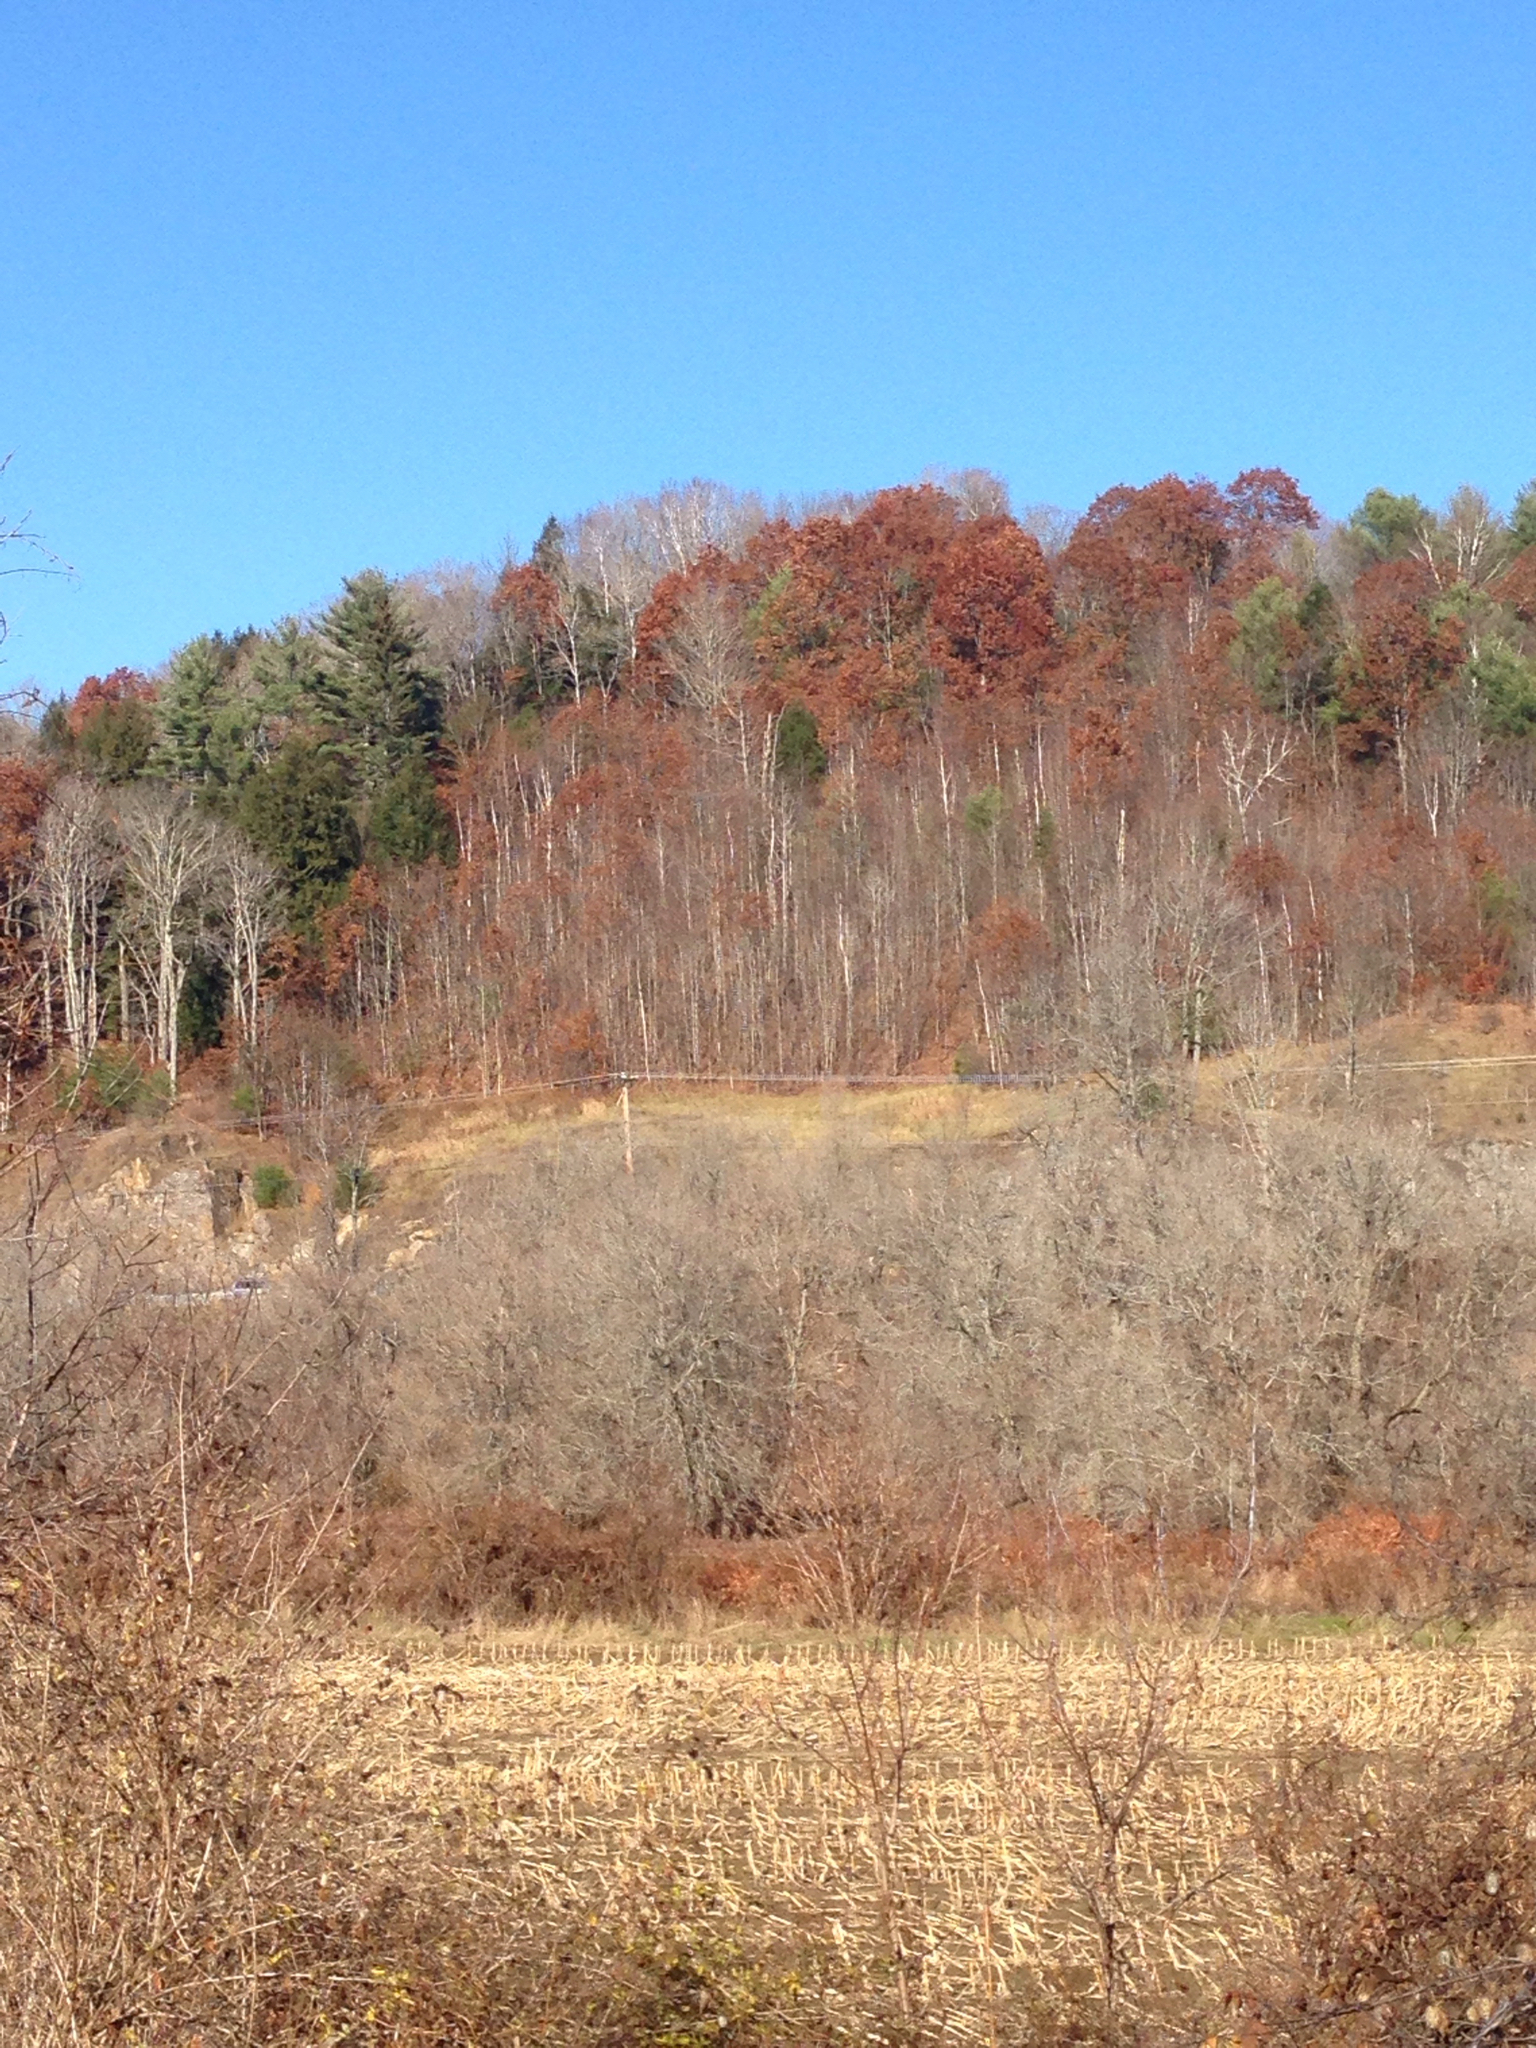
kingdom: Plantae
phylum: Tracheophyta
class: Magnoliopsida
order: Fagales
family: Fagaceae
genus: Quercus
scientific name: Quercus rubra
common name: Red oak
